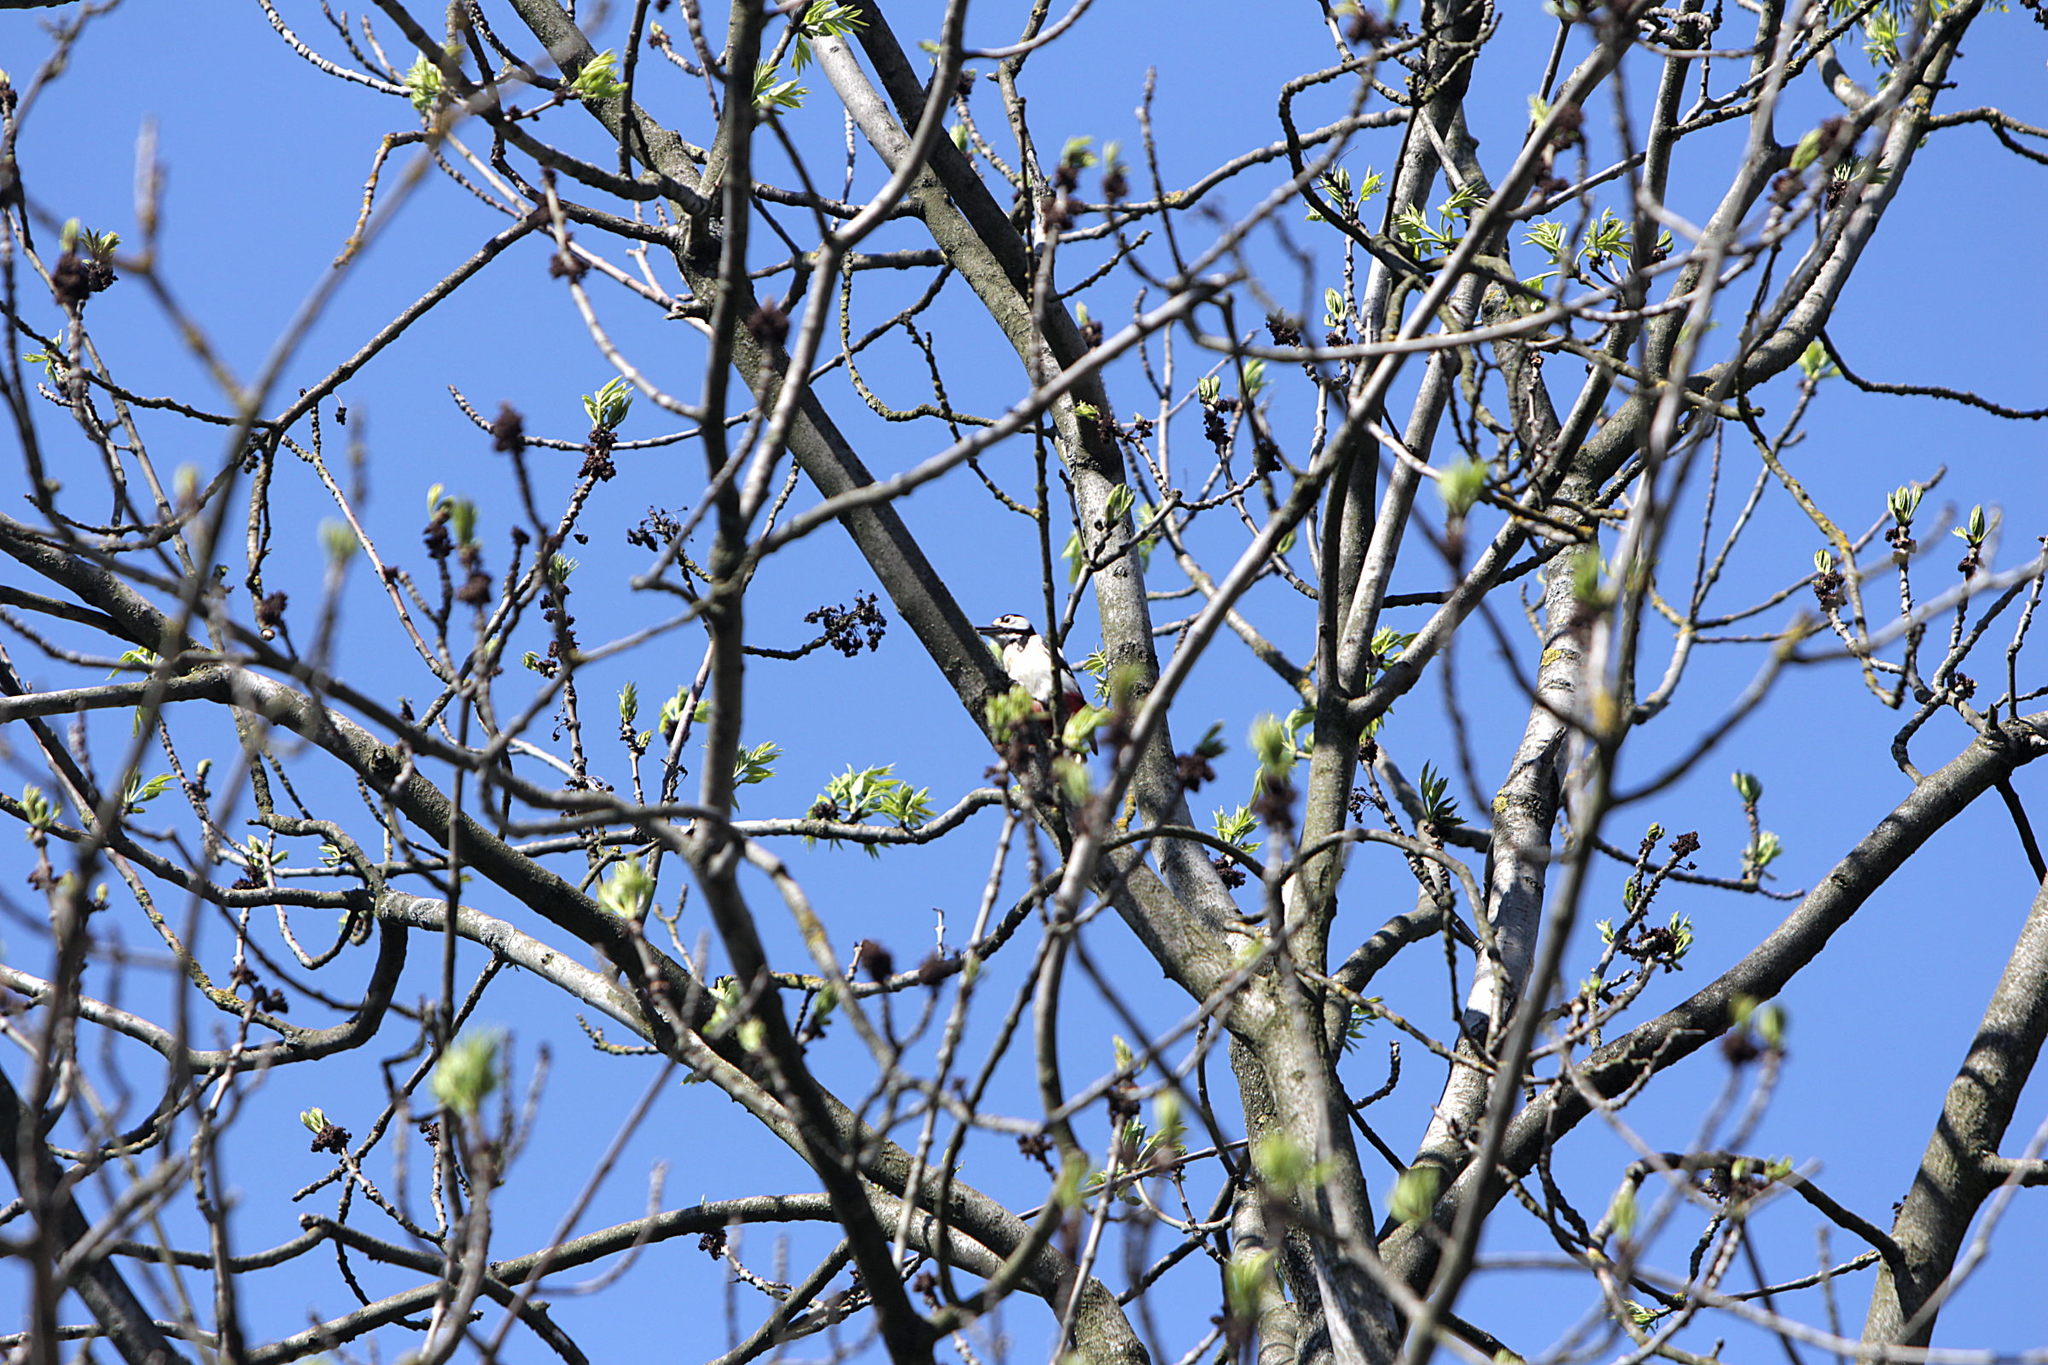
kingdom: Animalia
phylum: Chordata
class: Aves
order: Piciformes
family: Picidae
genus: Dendrocopos
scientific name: Dendrocopos major
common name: Great spotted woodpecker
